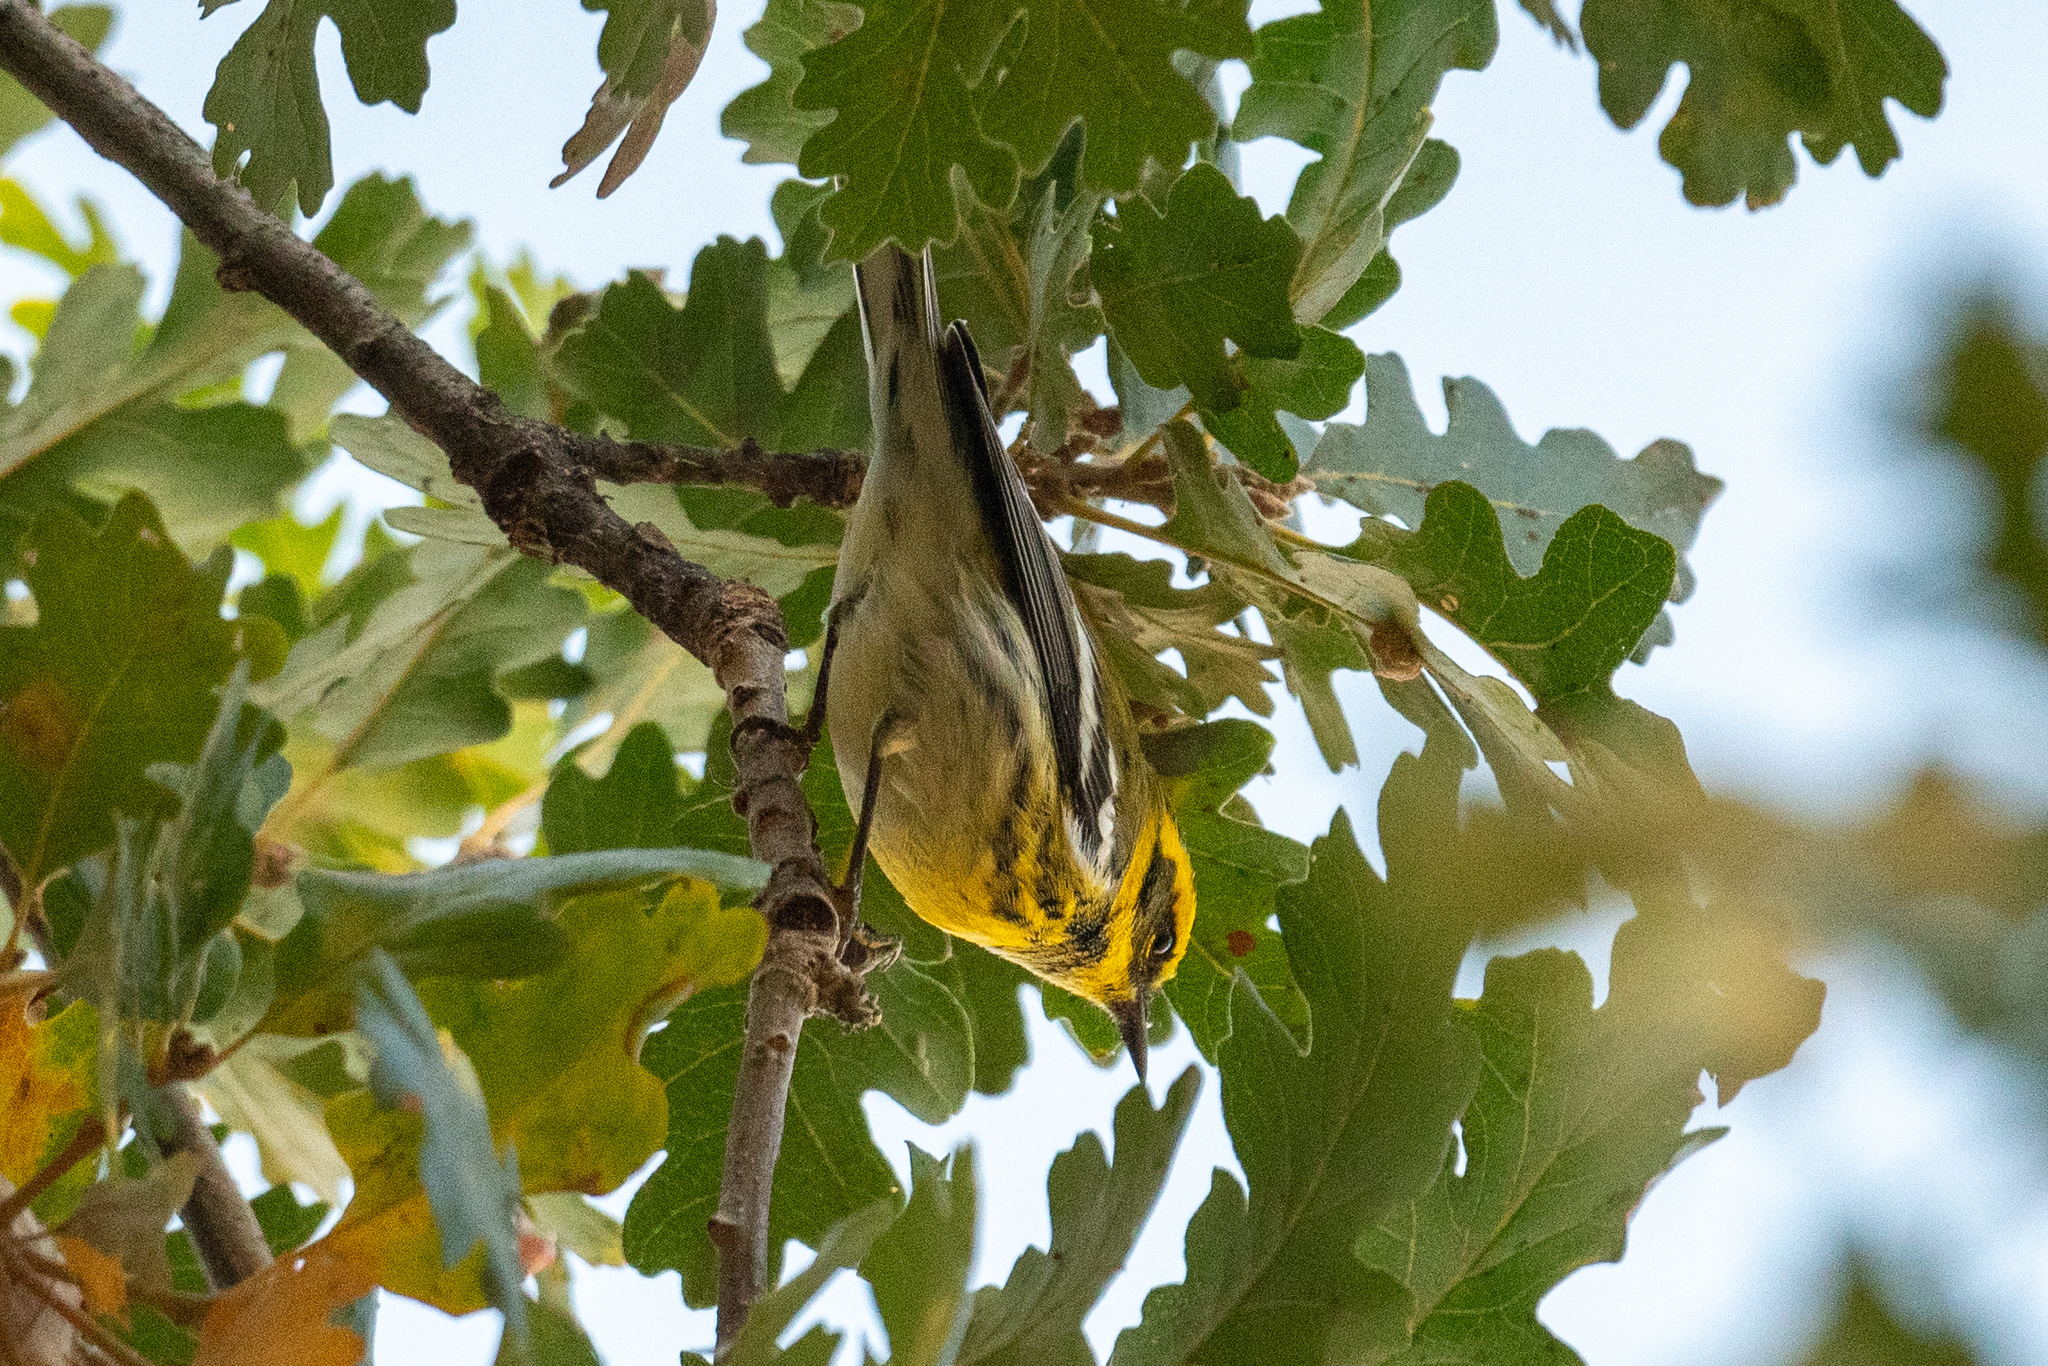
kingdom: Animalia
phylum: Chordata
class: Aves
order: Passeriformes
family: Parulidae
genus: Setophaga
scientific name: Setophaga townsendi
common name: Townsend's warbler
